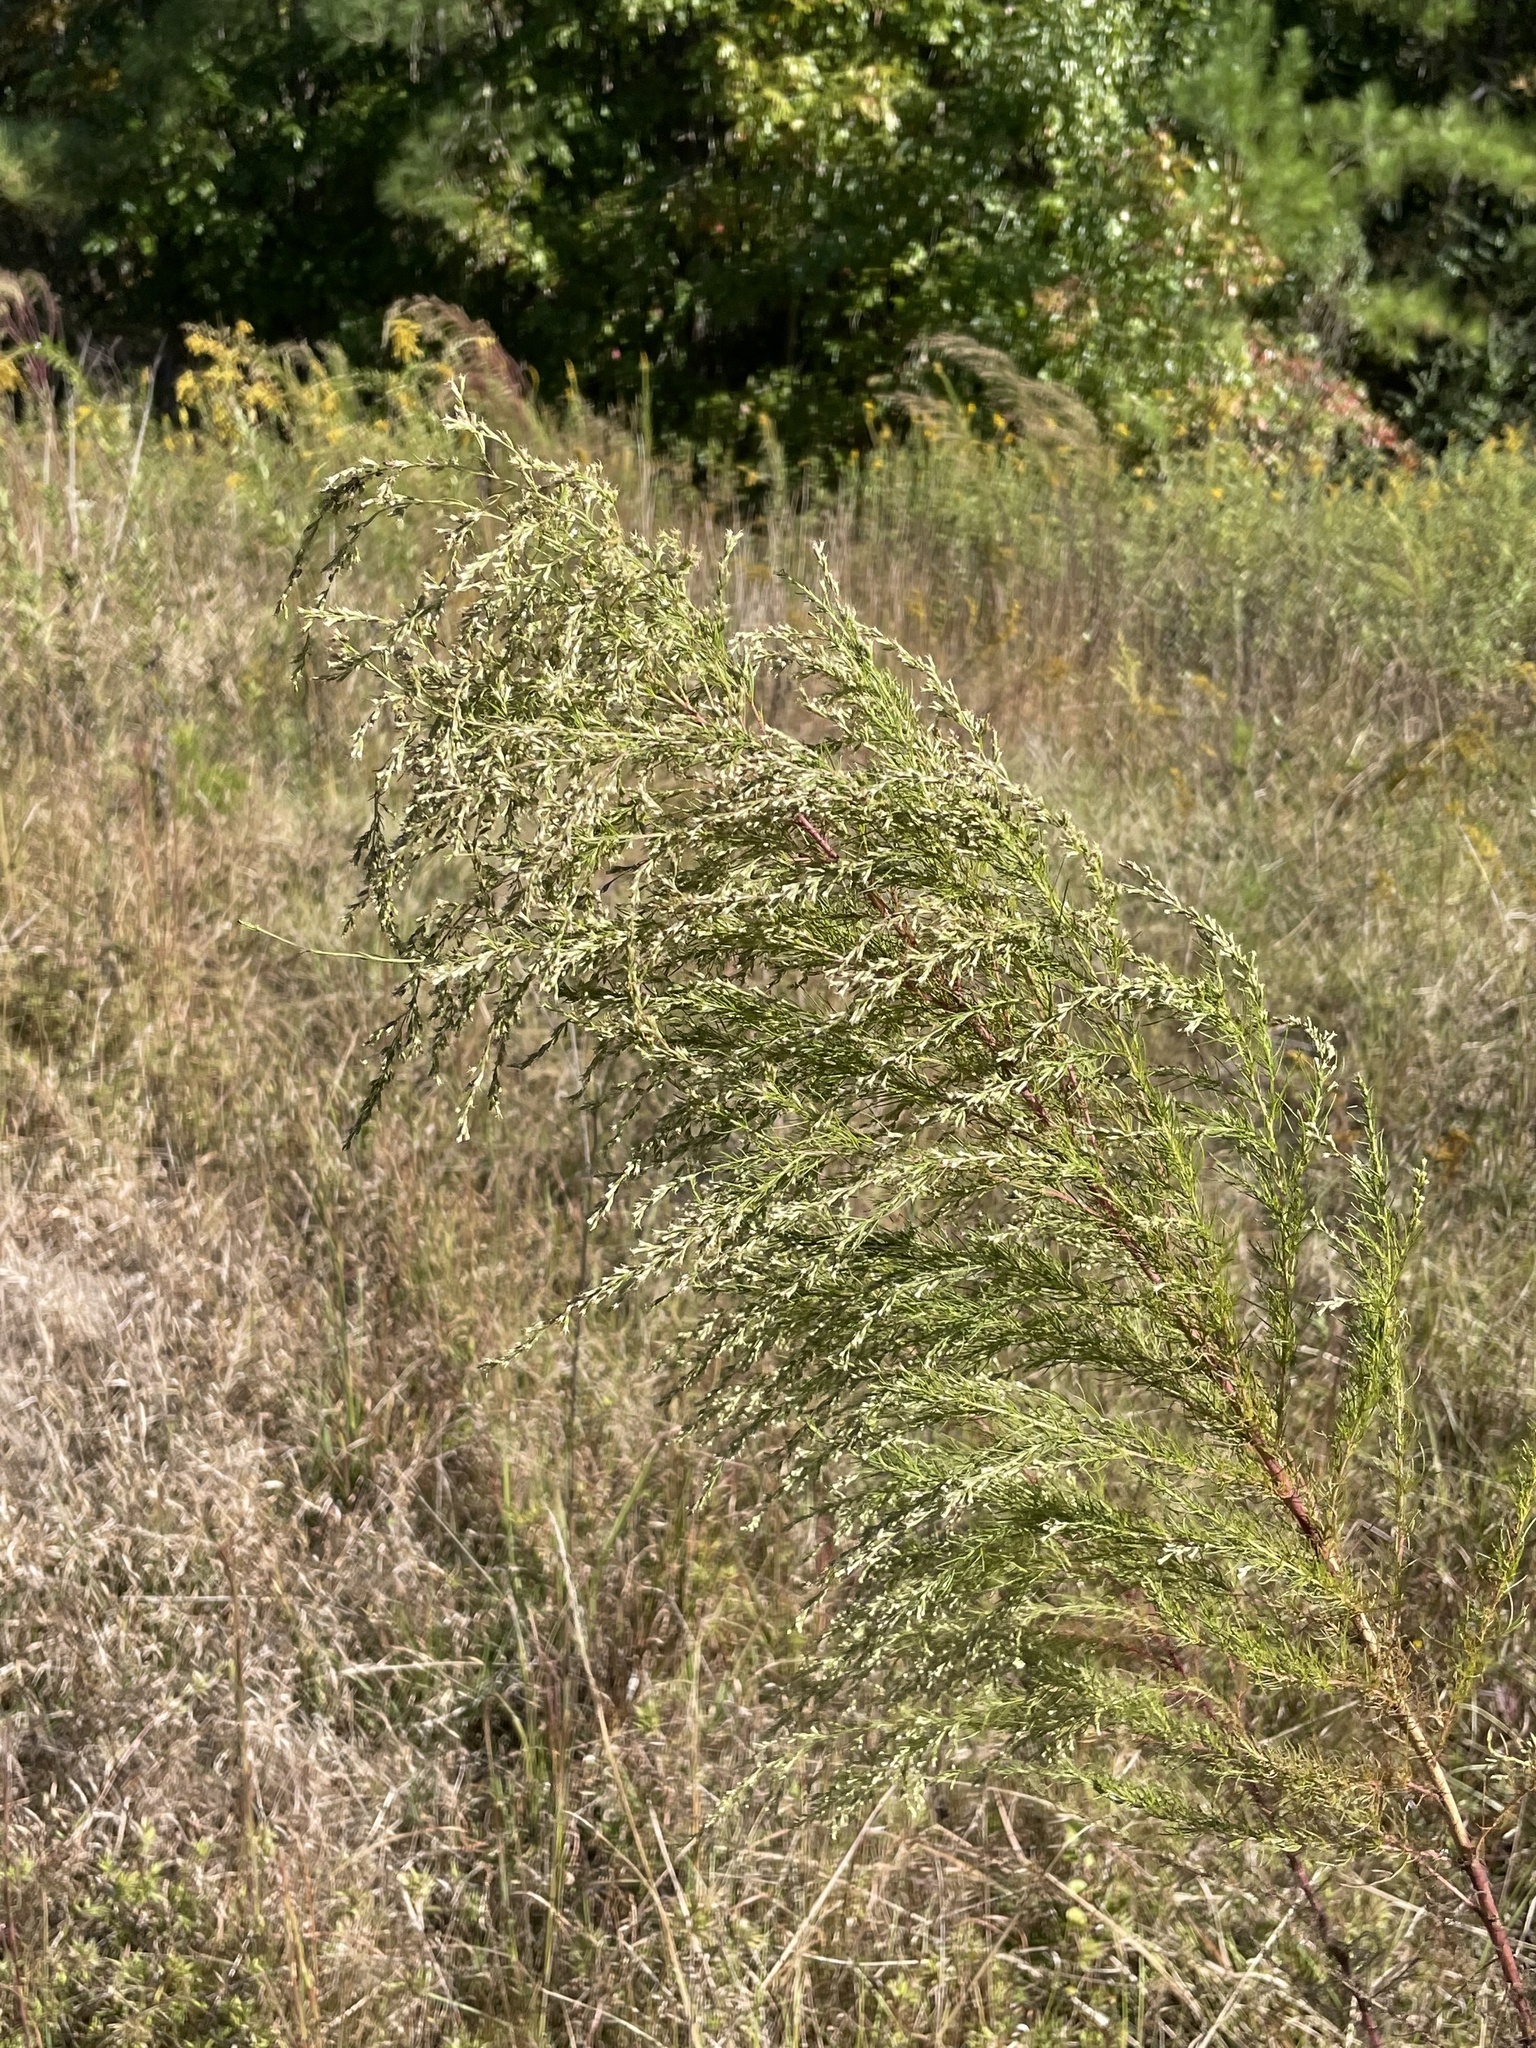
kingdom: Plantae
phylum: Tracheophyta
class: Magnoliopsida
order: Asterales
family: Asteraceae
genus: Eupatorium
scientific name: Eupatorium capillifolium
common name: Dog-fennel
